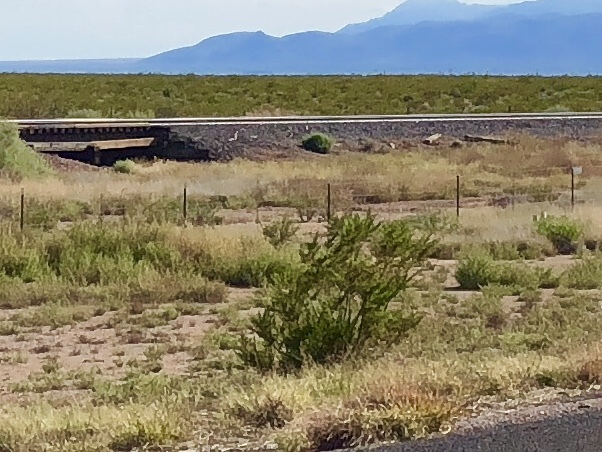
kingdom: Plantae
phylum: Tracheophyta
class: Magnoliopsida
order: Zygophyllales
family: Zygophyllaceae
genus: Larrea
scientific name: Larrea tridentata
